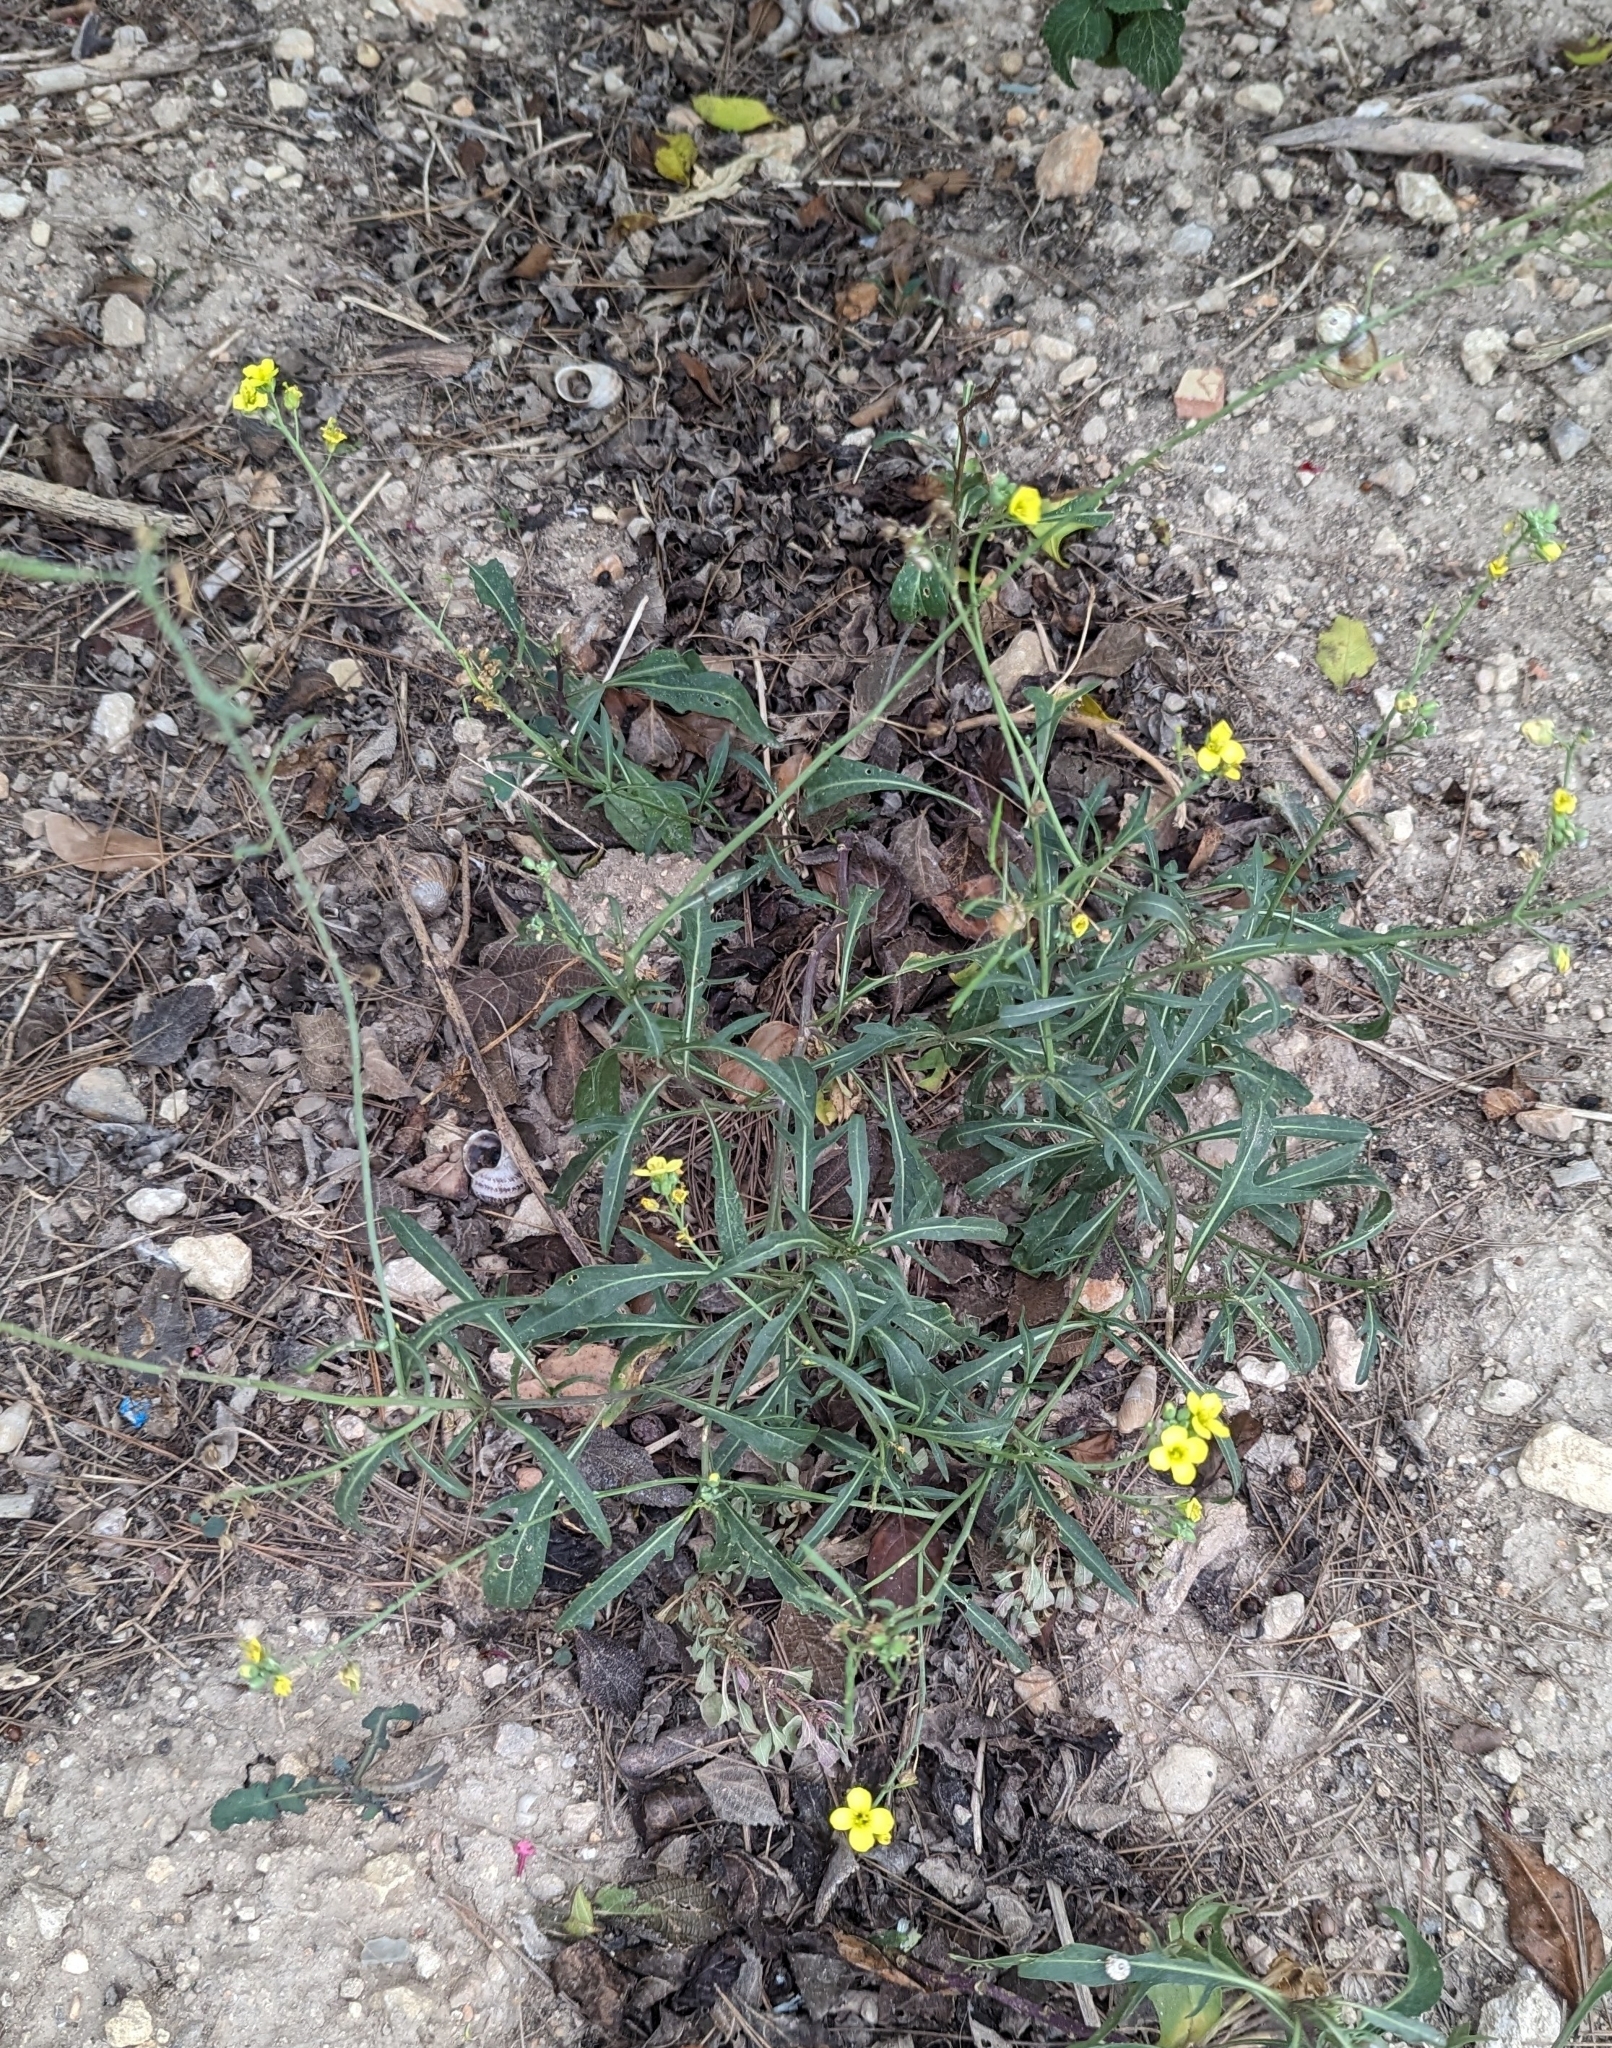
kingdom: Plantae
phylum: Tracheophyta
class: Magnoliopsida
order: Brassicales
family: Brassicaceae
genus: Diplotaxis
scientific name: Diplotaxis tenuifolia
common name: Perennial wall-rocket
